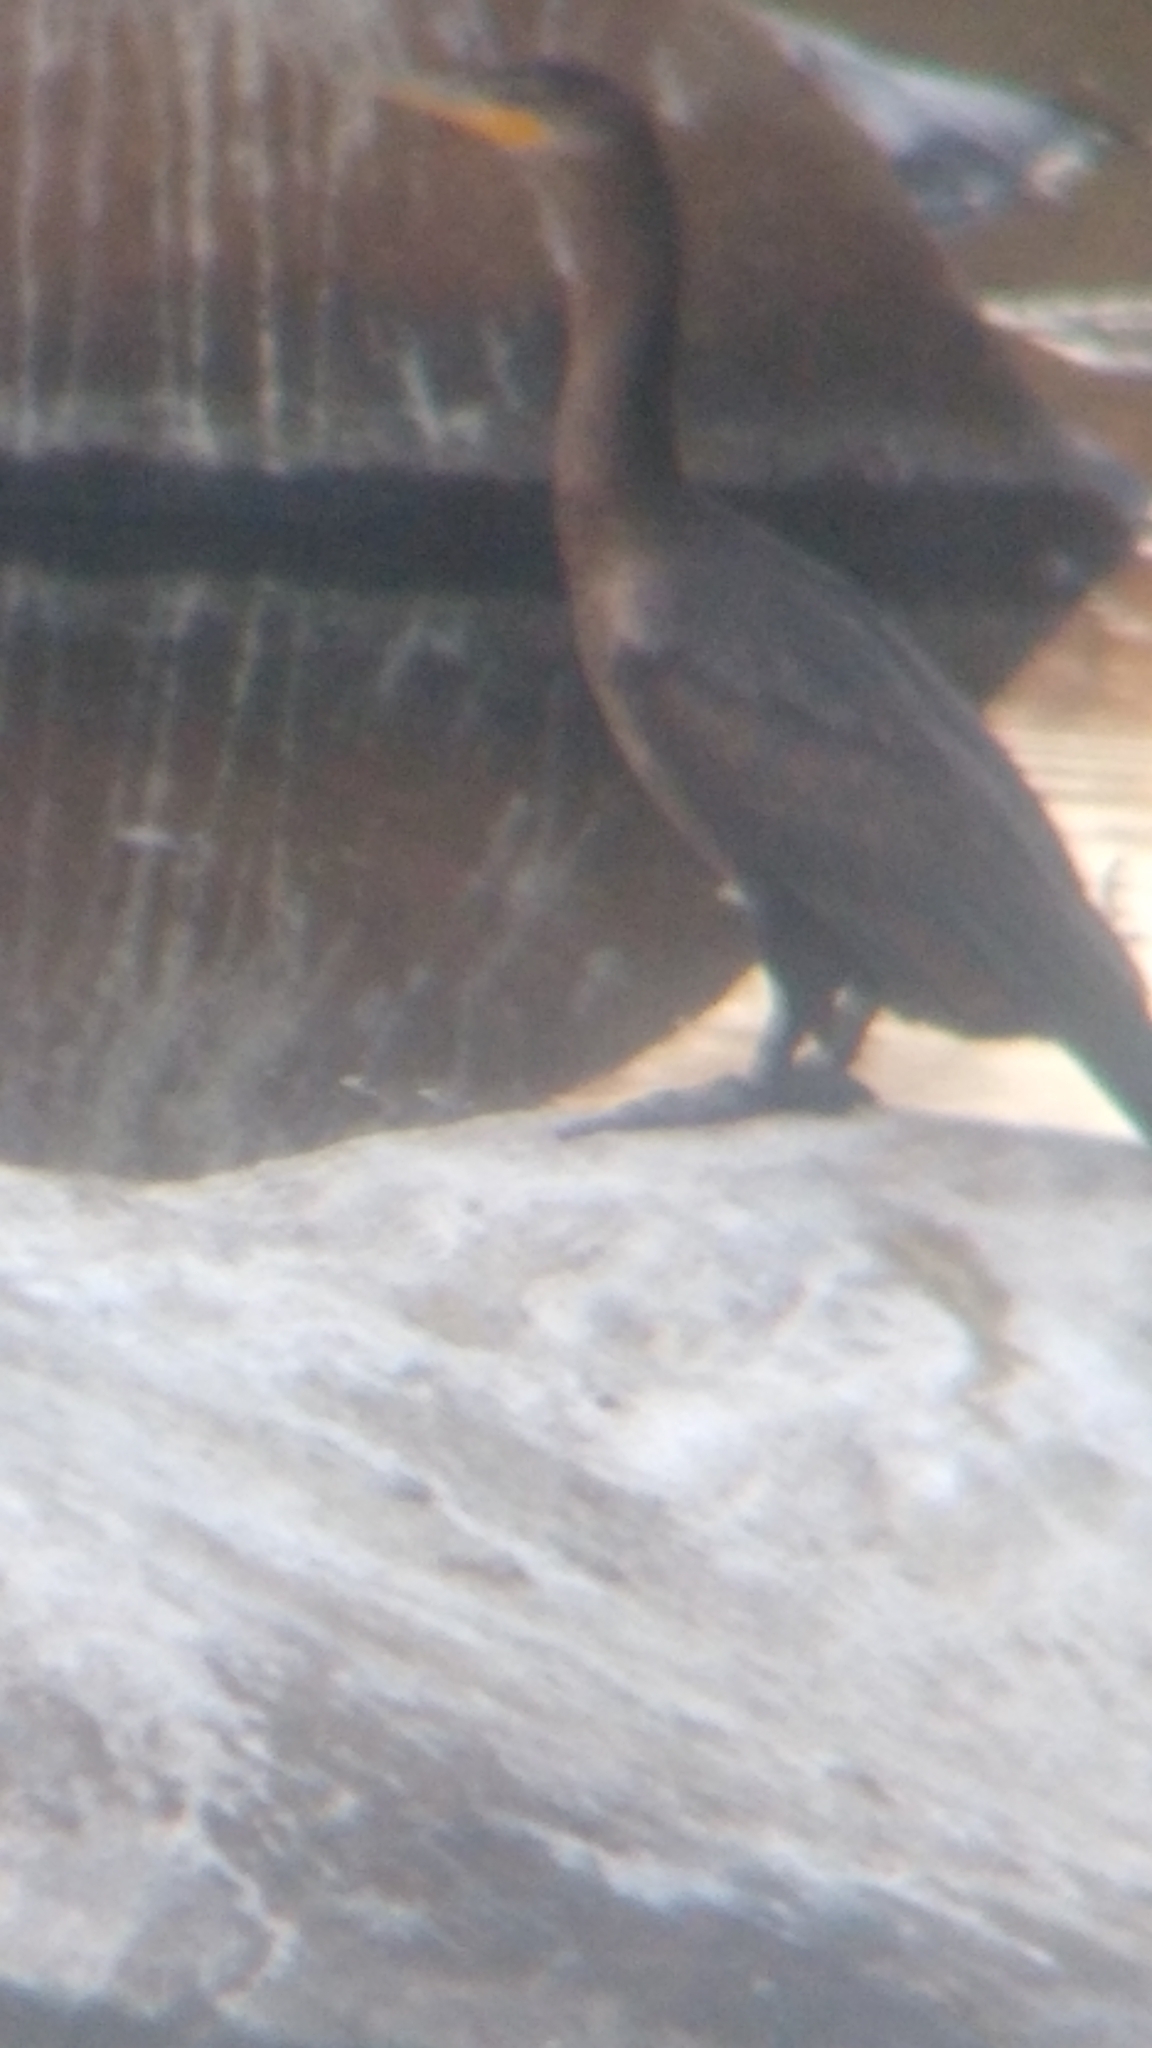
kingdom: Animalia
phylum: Chordata
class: Aves
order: Suliformes
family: Phalacrocoracidae
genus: Phalacrocorax
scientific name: Phalacrocorax brasilianus
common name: Neotropic cormorant
